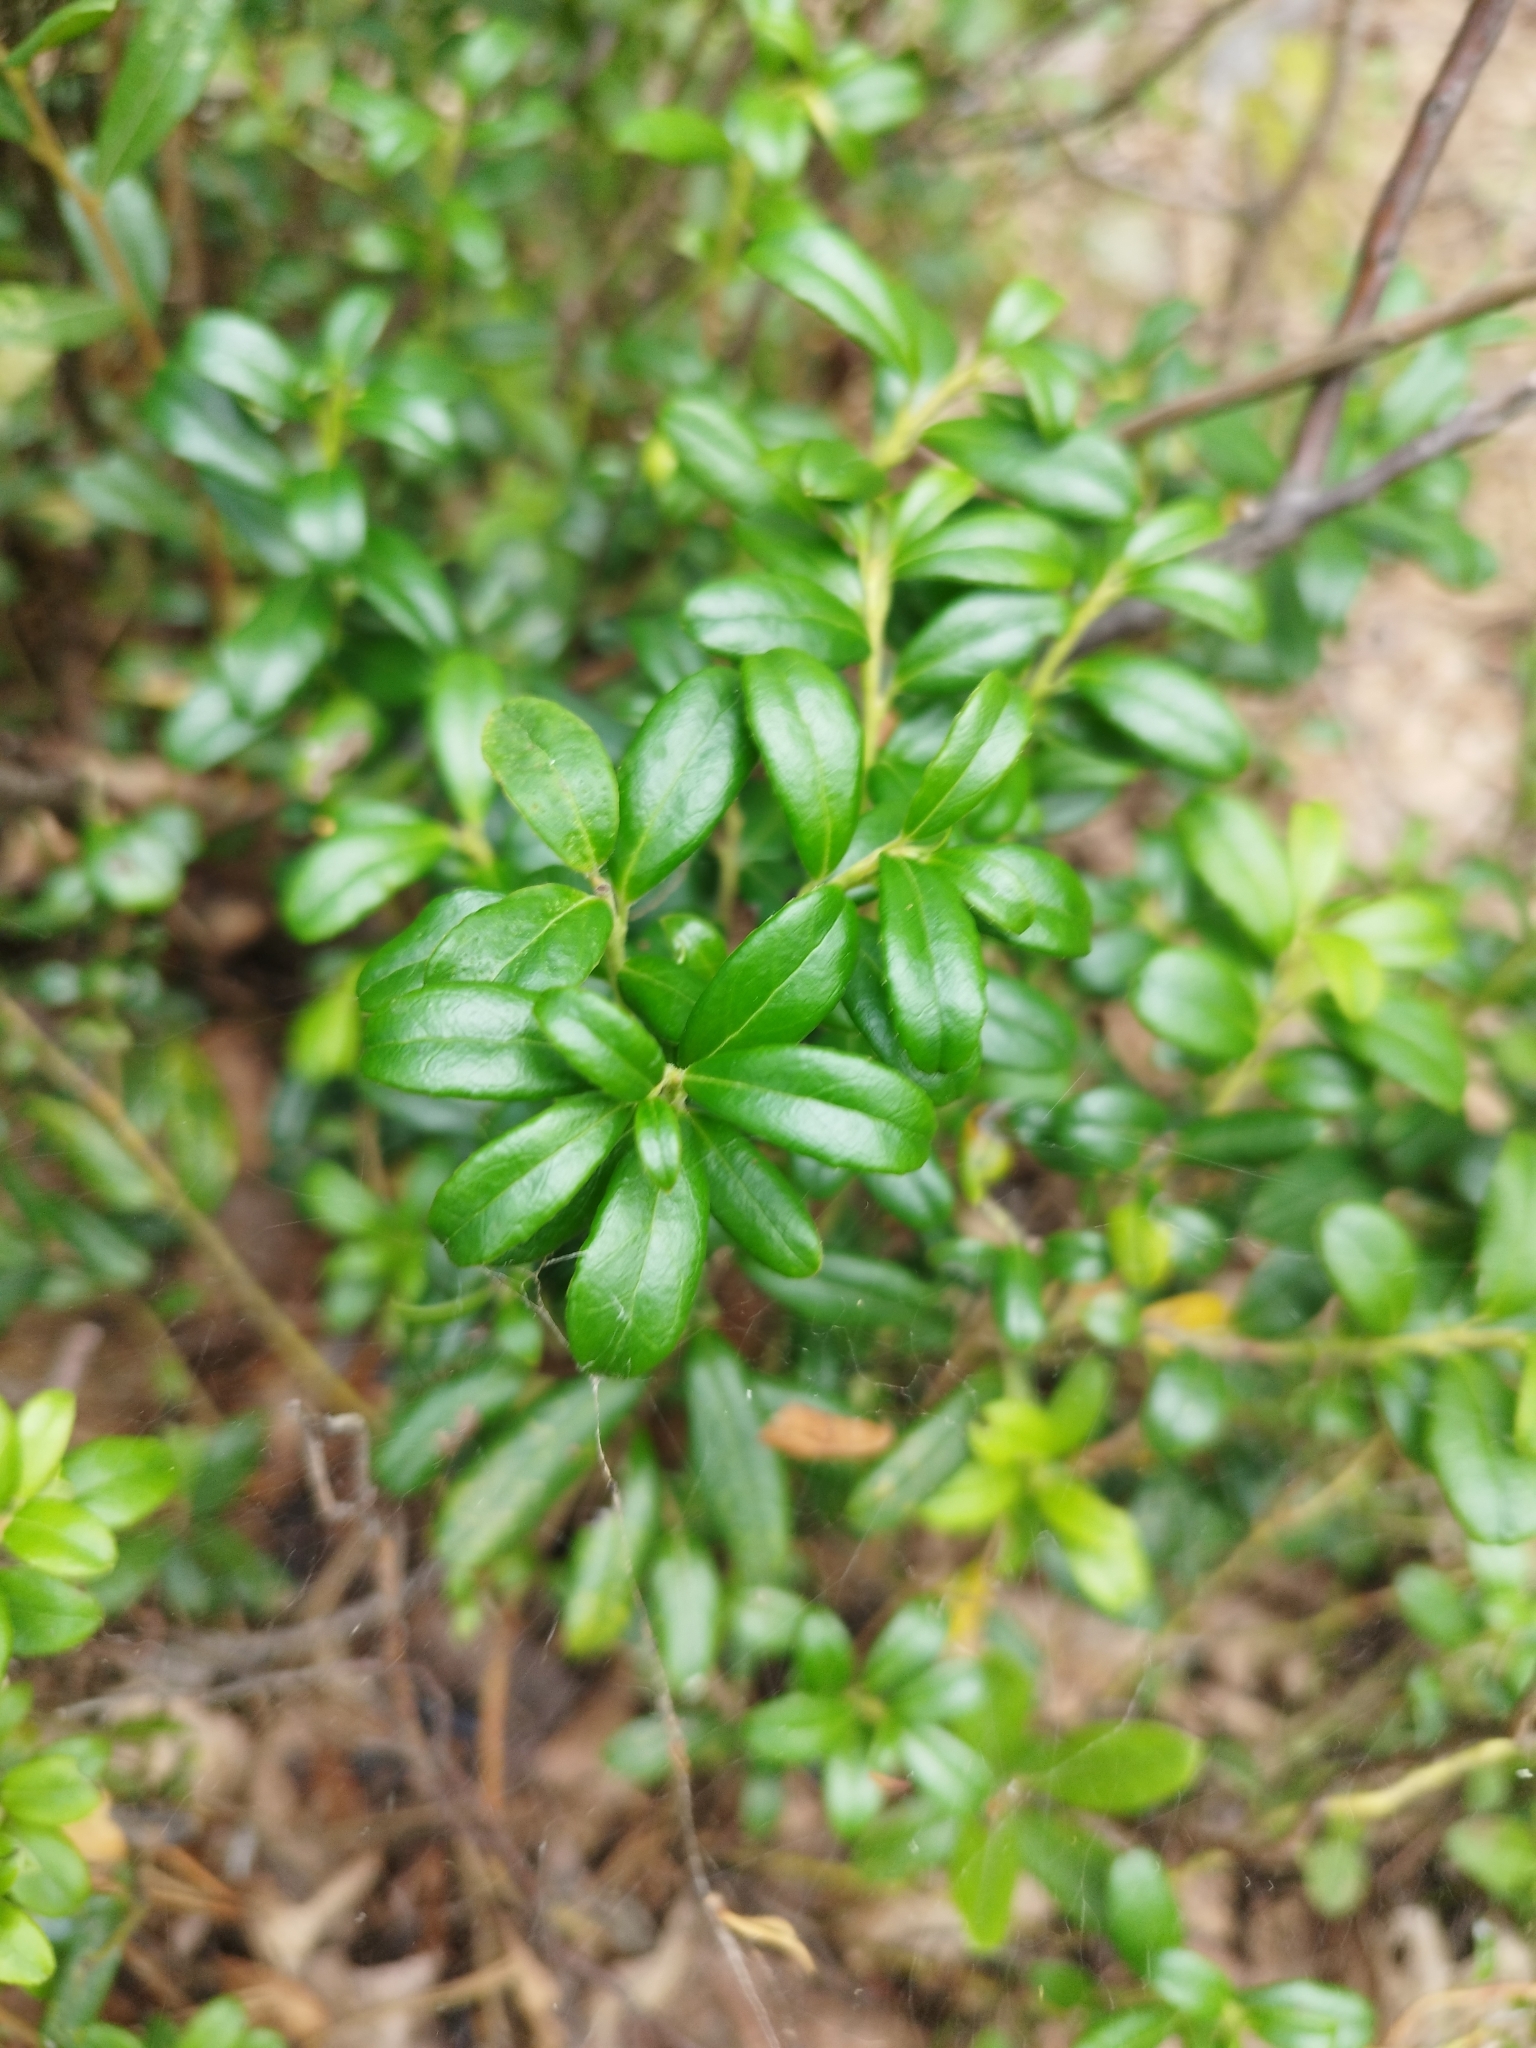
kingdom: Plantae
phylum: Tracheophyta
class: Magnoliopsida
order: Ericales
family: Ericaceae
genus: Vaccinium
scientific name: Vaccinium vitis-idaea
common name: Cowberry
